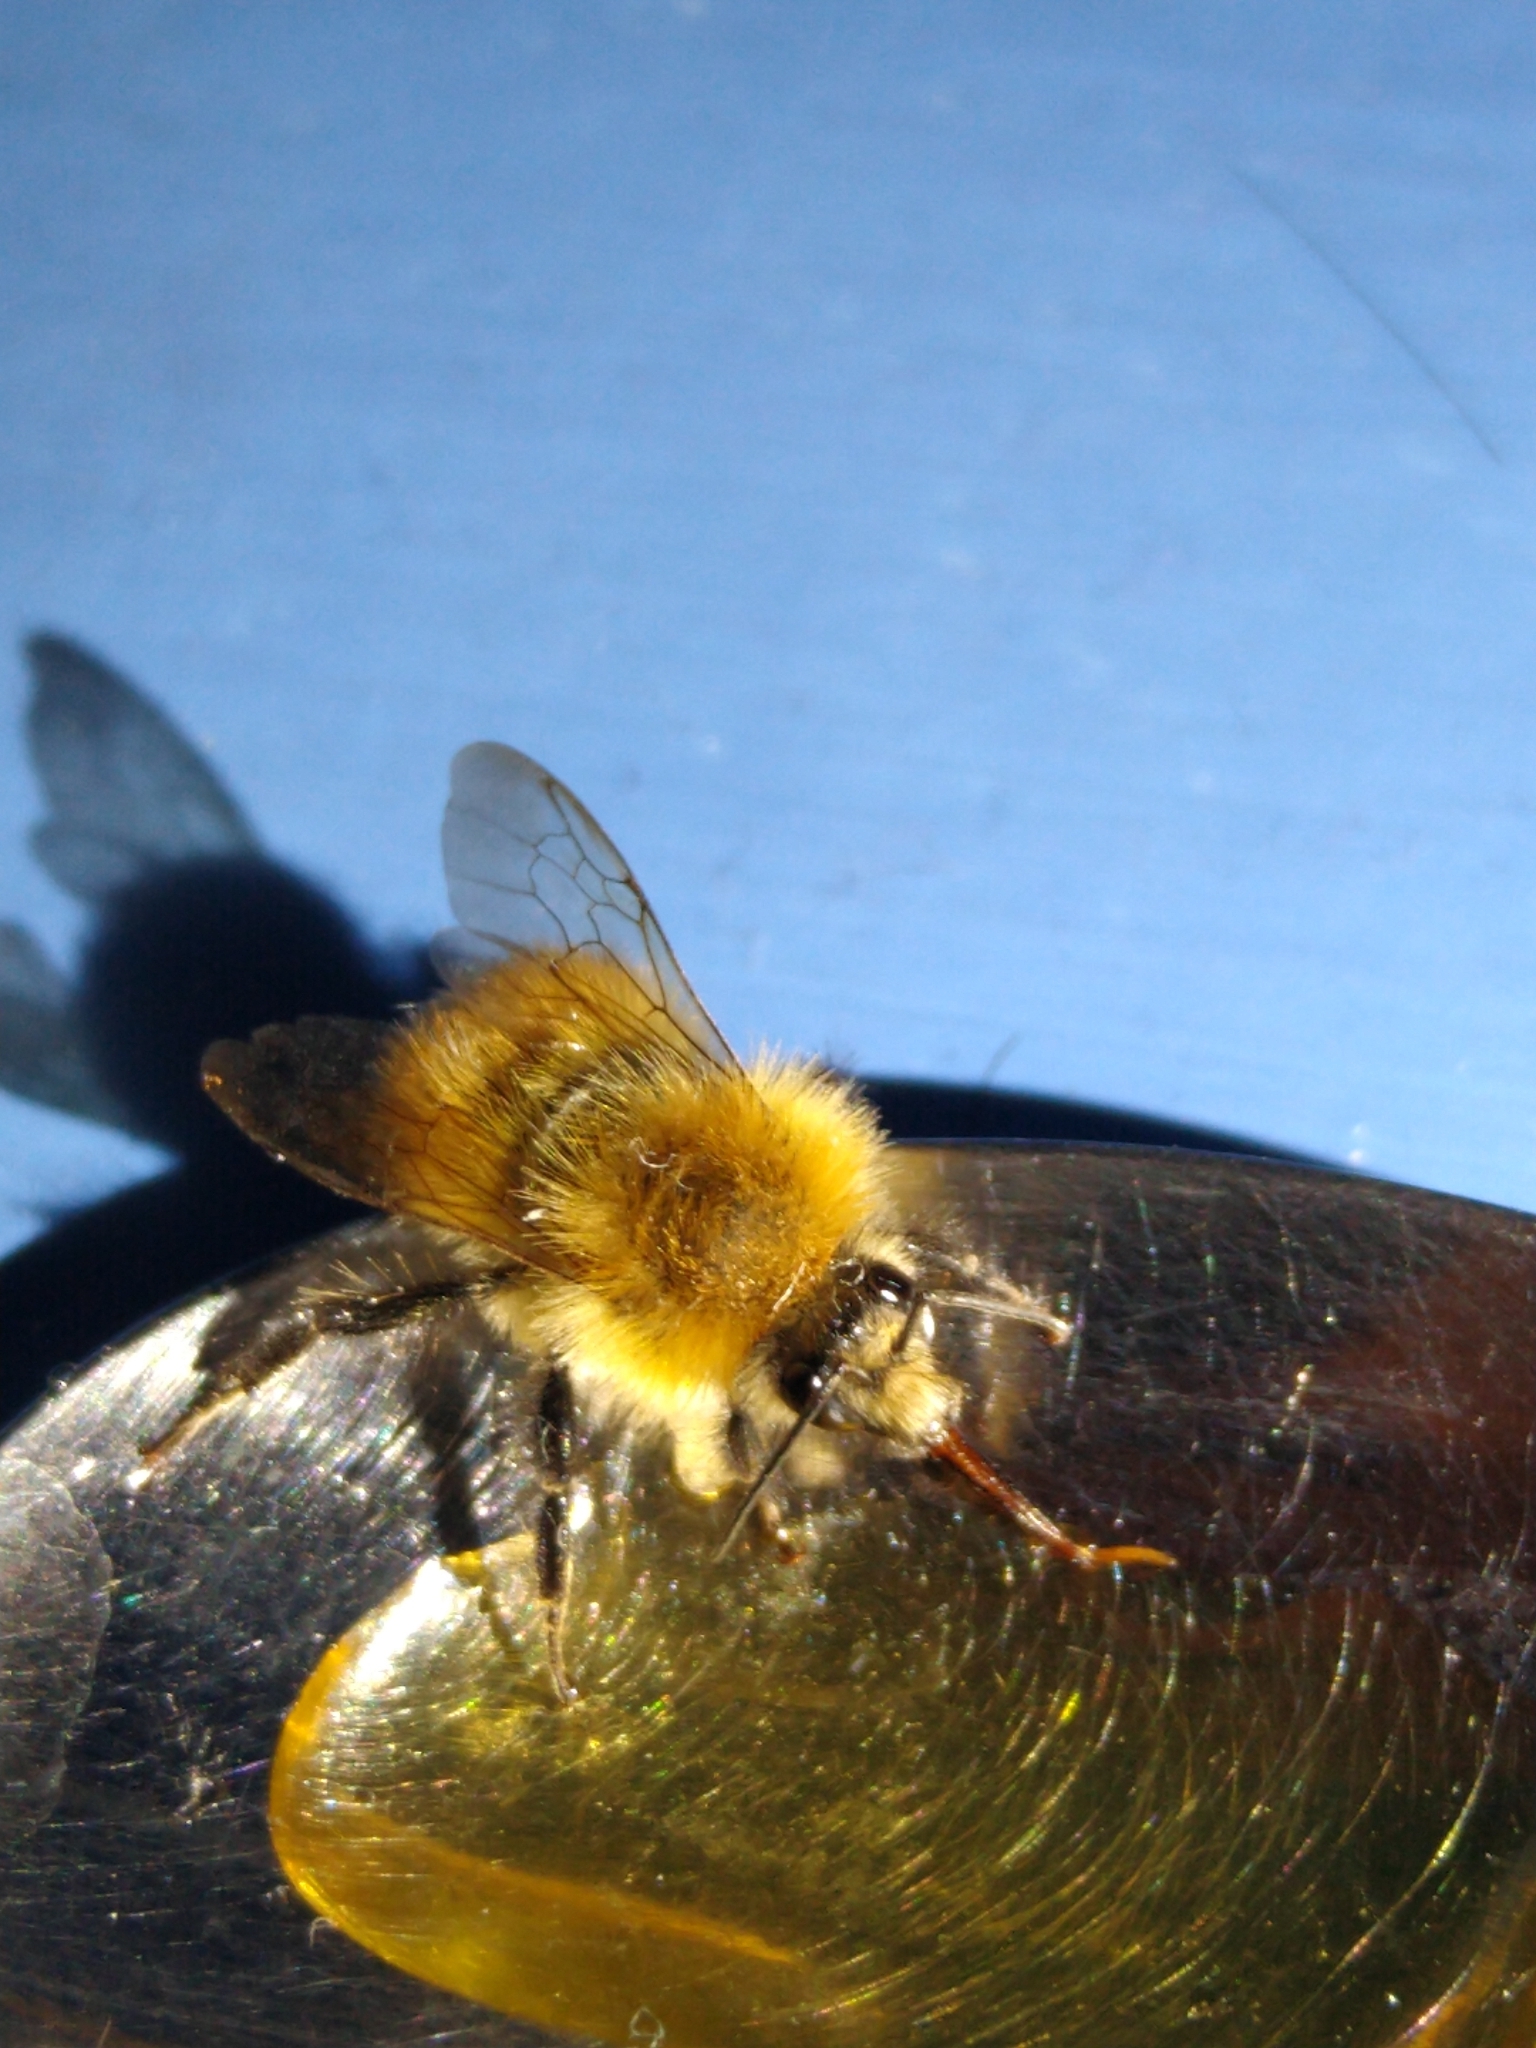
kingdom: Animalia
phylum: Arthropoda
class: Insecta
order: Hymenoptera
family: Apidae
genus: Bombus
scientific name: Bombus pascuorum
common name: Common carder bee
